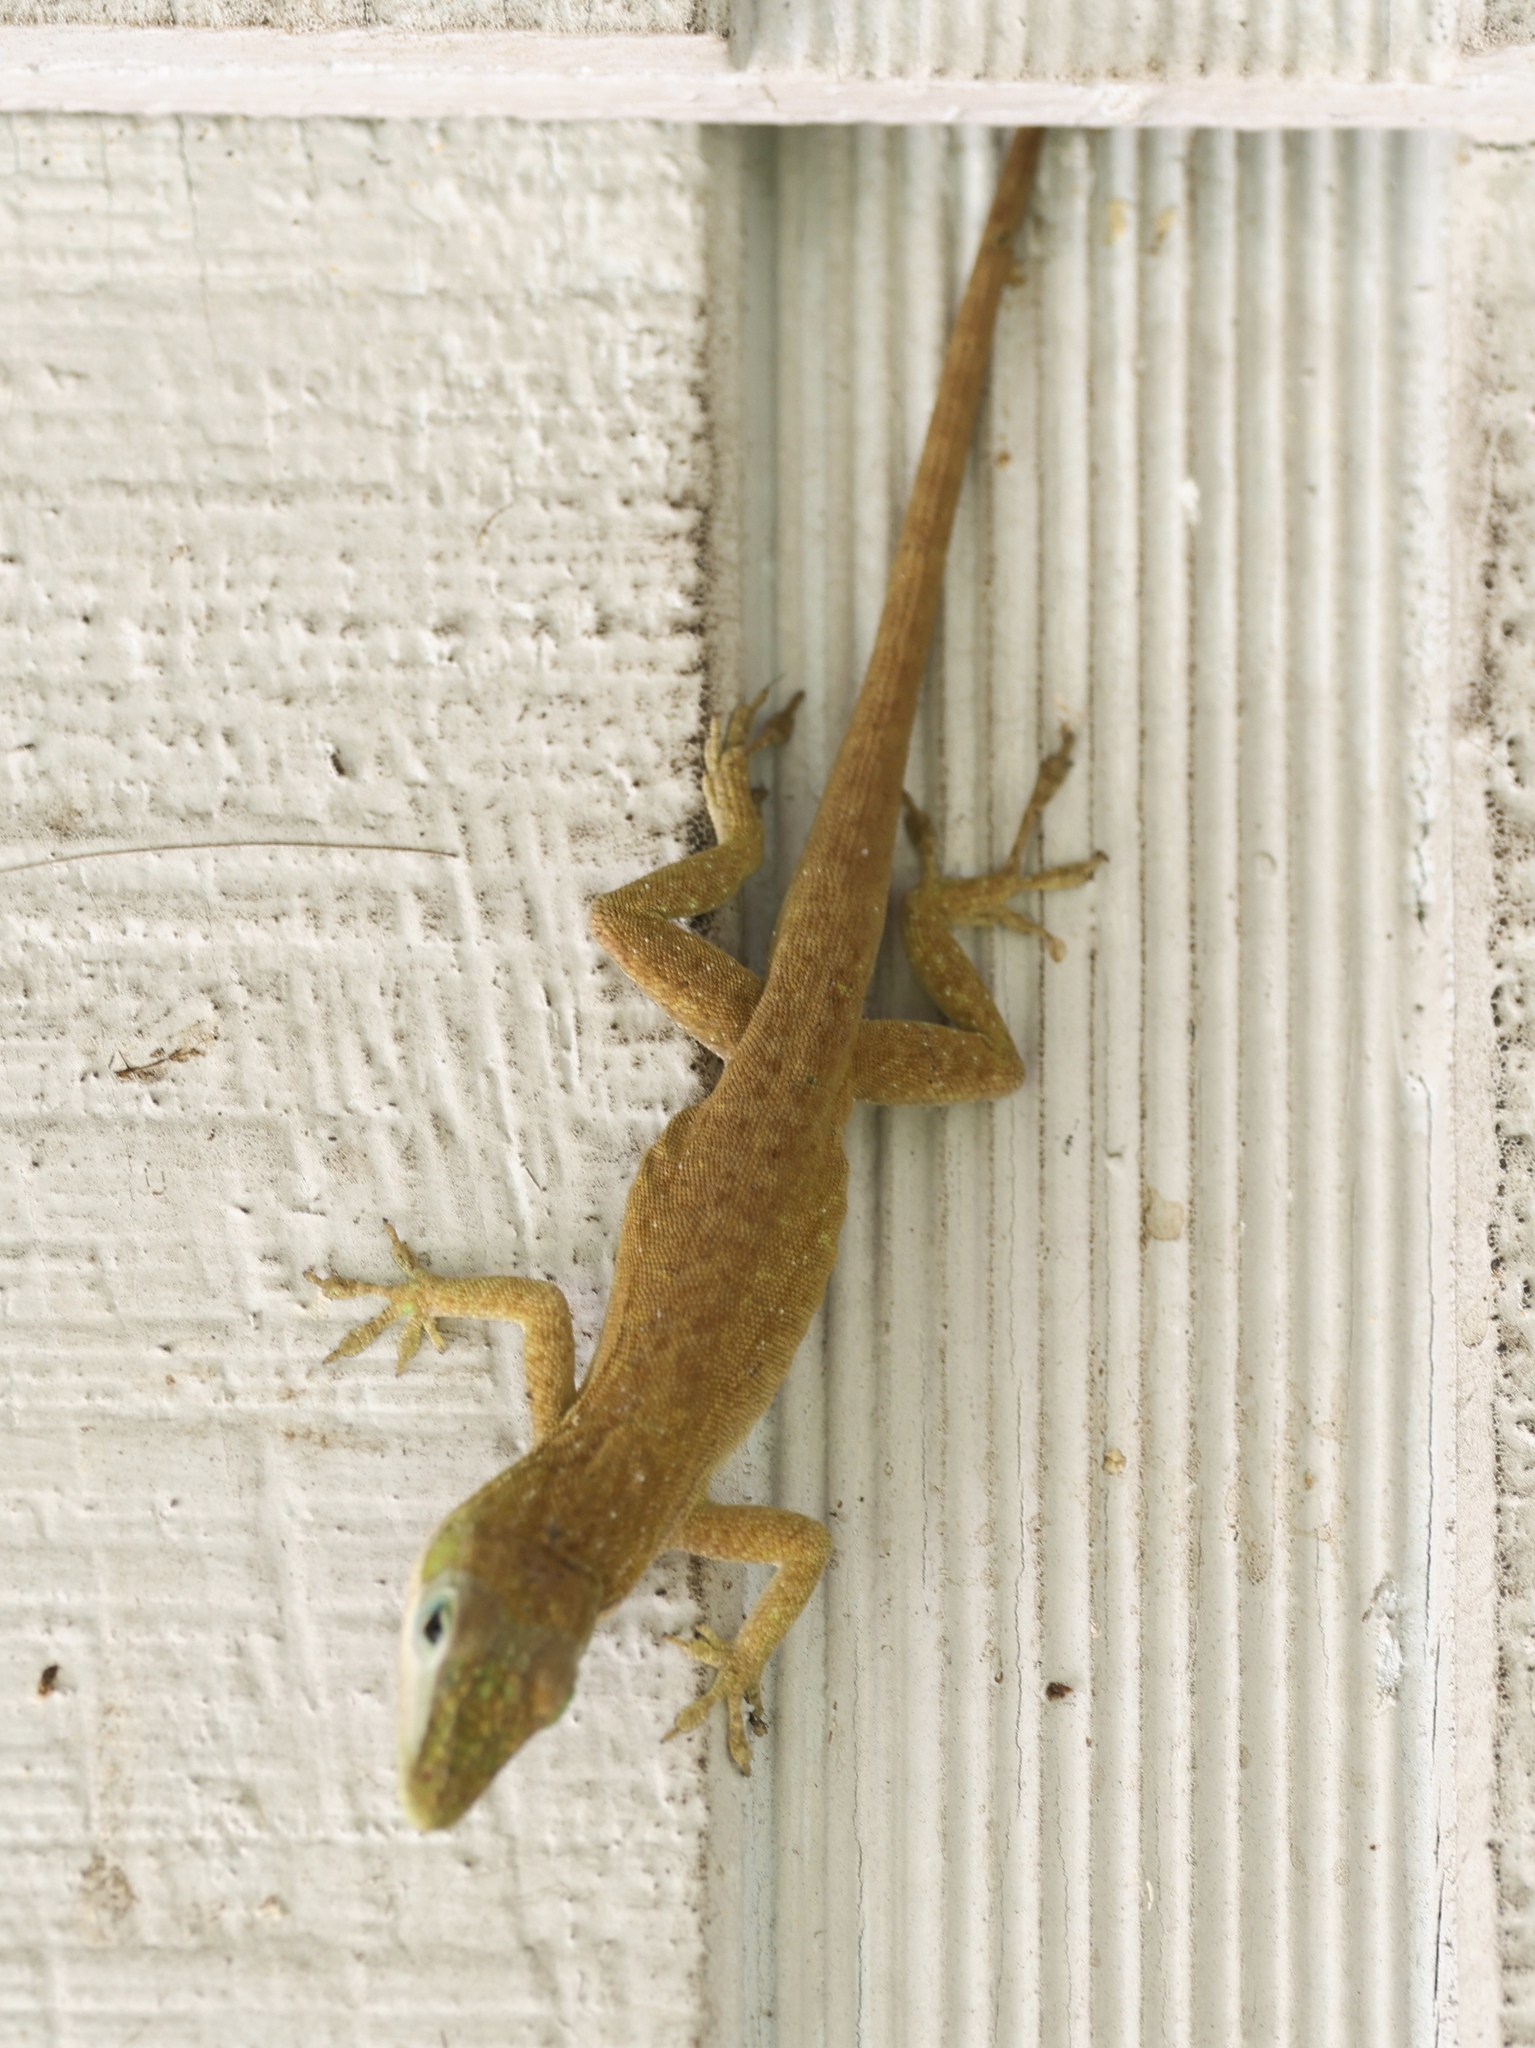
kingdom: Animalia
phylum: Chordata
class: Squamata
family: Dactyloidae
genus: Anolis
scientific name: Anolis carolinensis
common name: Green anole
